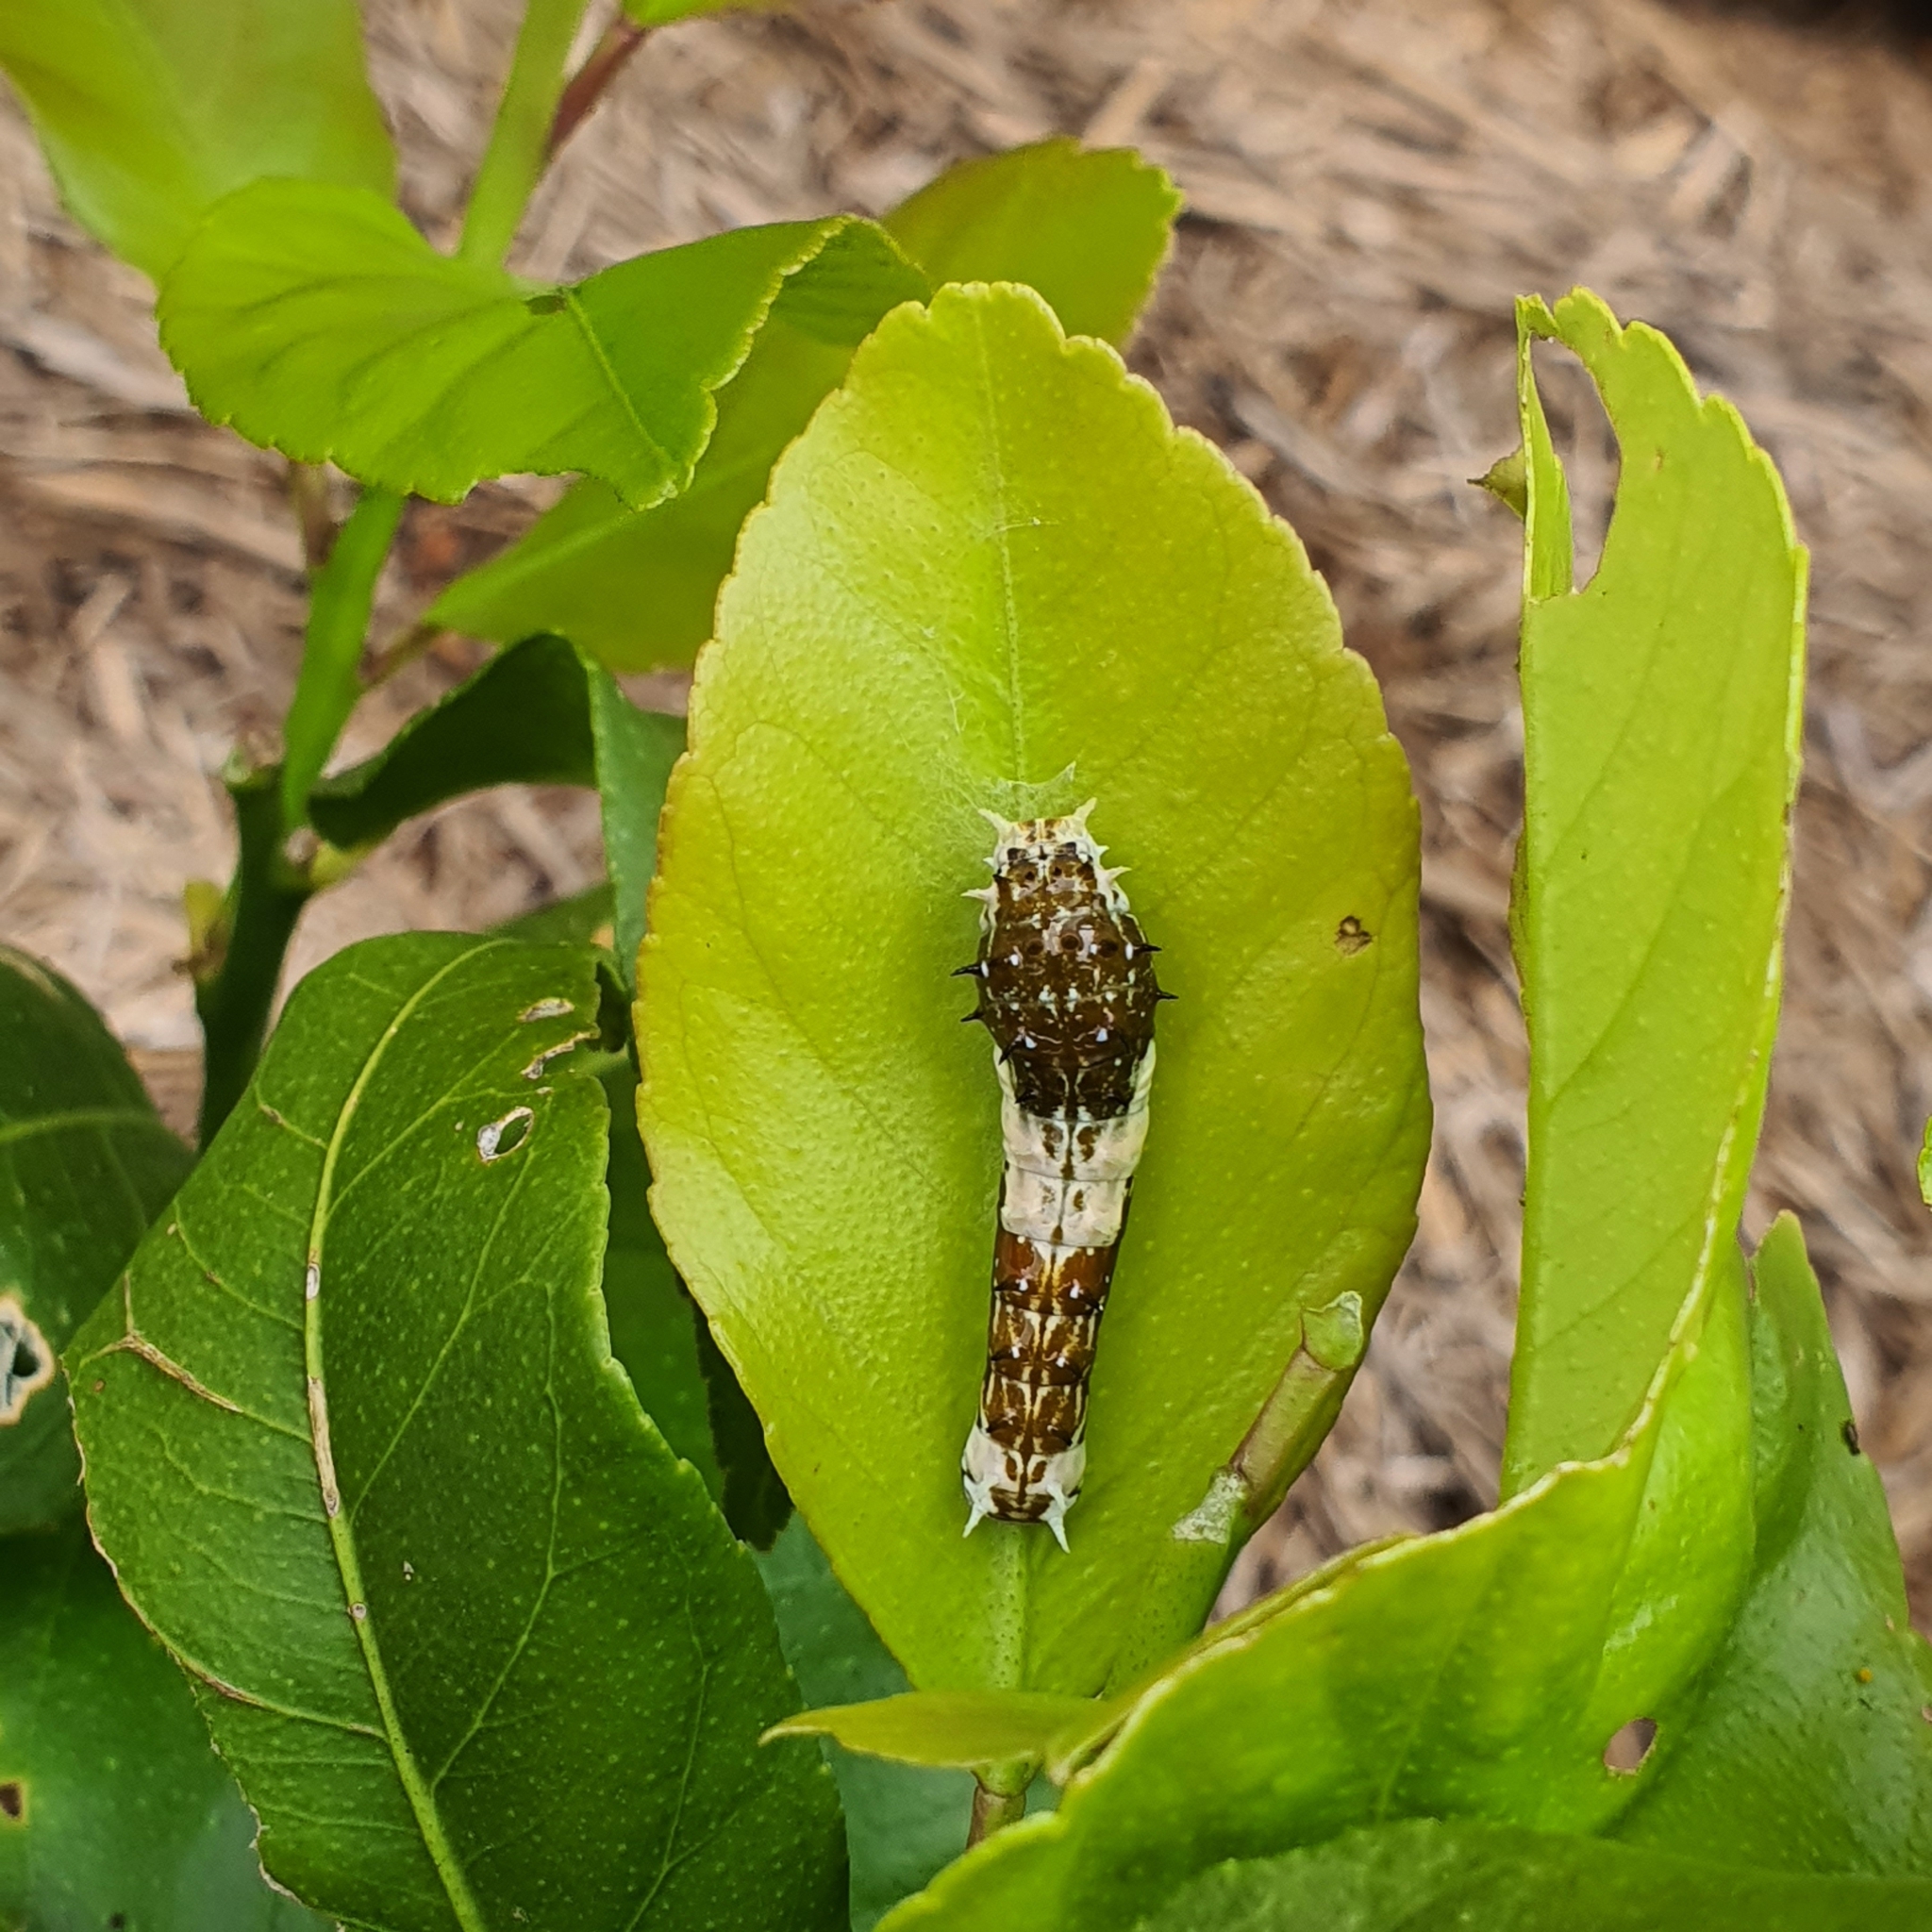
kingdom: Animalia
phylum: Arthropoda
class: Insecta
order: Lepidoptera
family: Papilionidae
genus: Papilio
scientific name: Papilio aegeus
